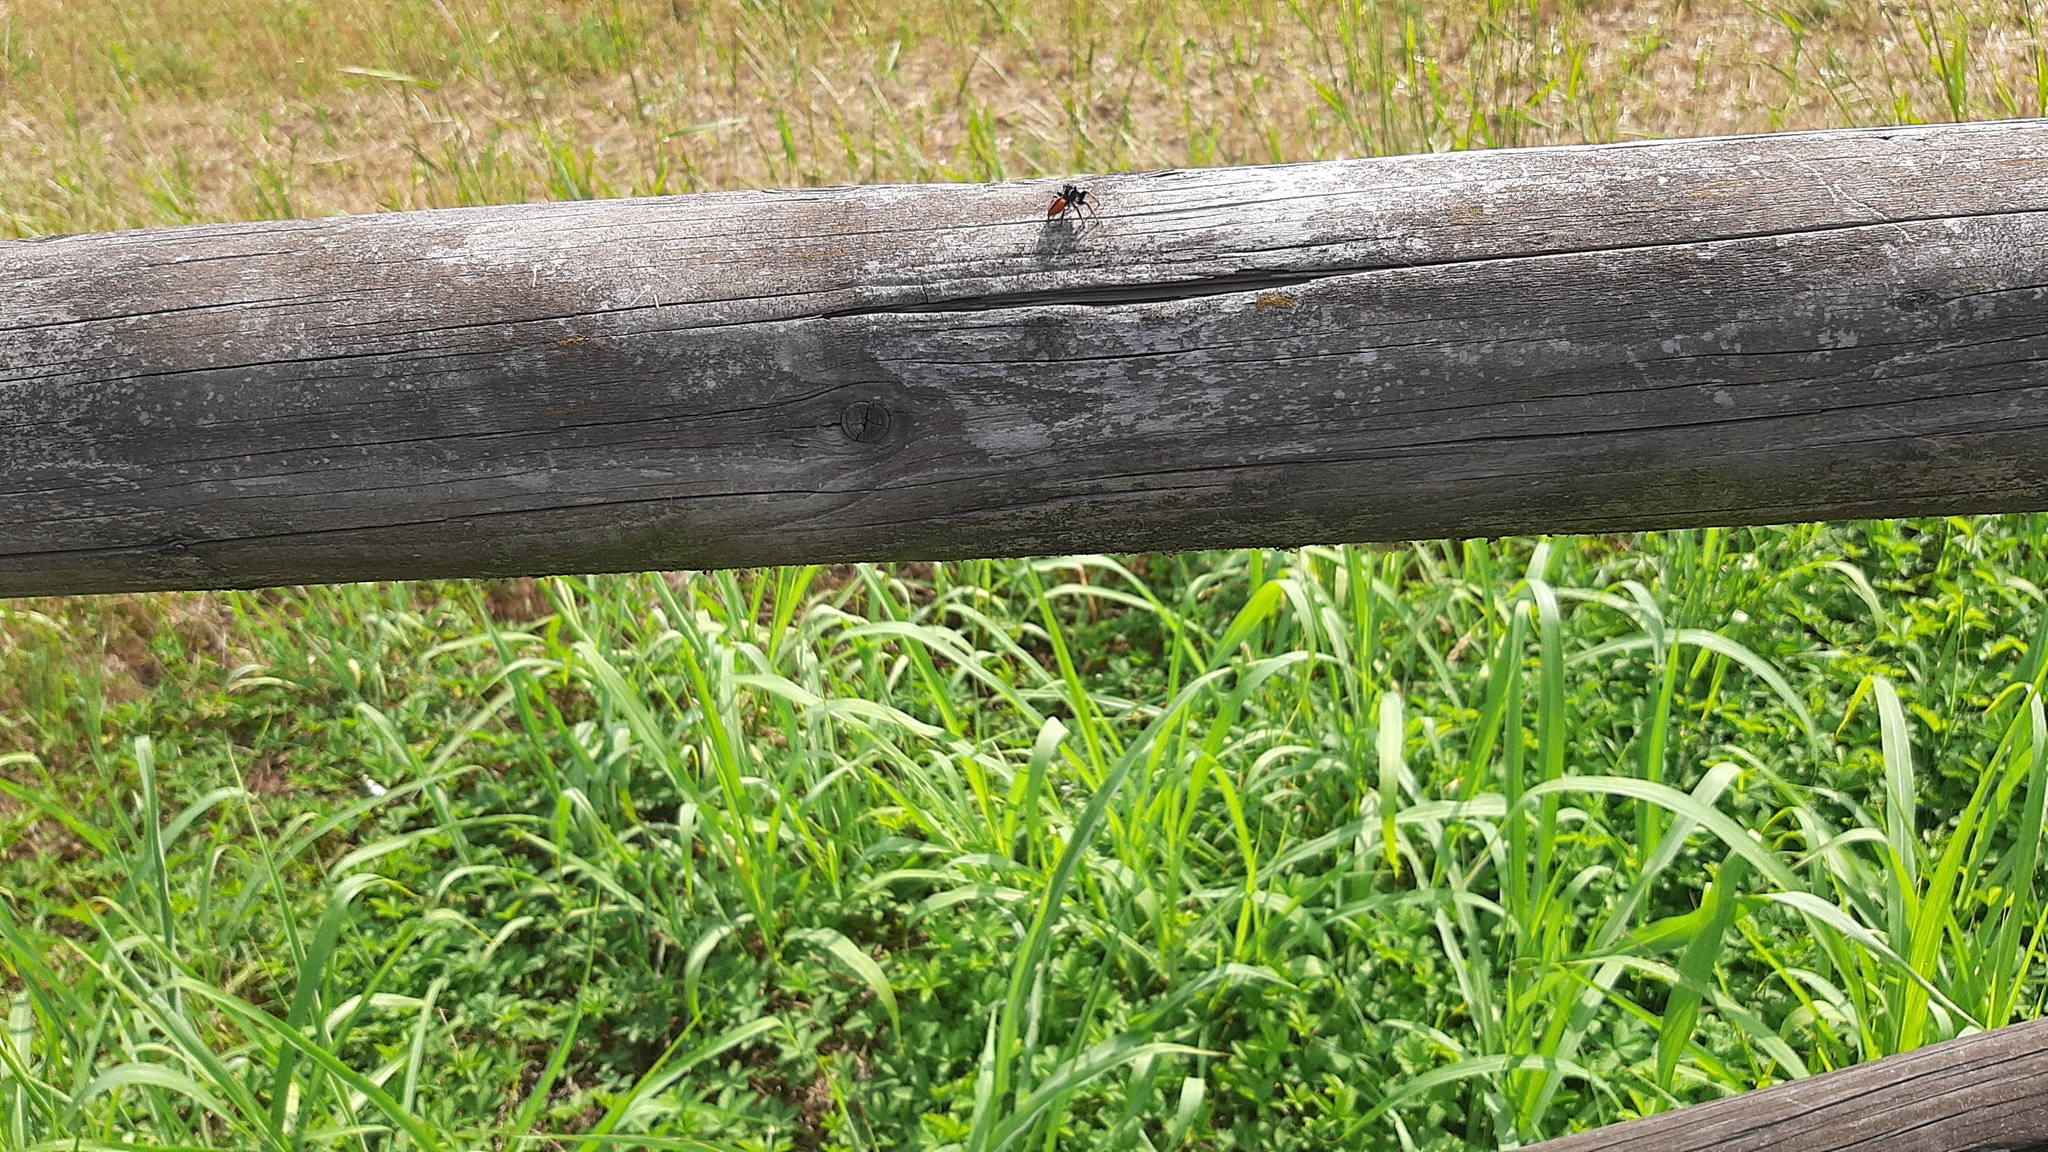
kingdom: Animalia
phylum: Arthropoda
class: Arachnida
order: Araneae
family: Salticidae
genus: Philaeus
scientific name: Philaeus chrysops
